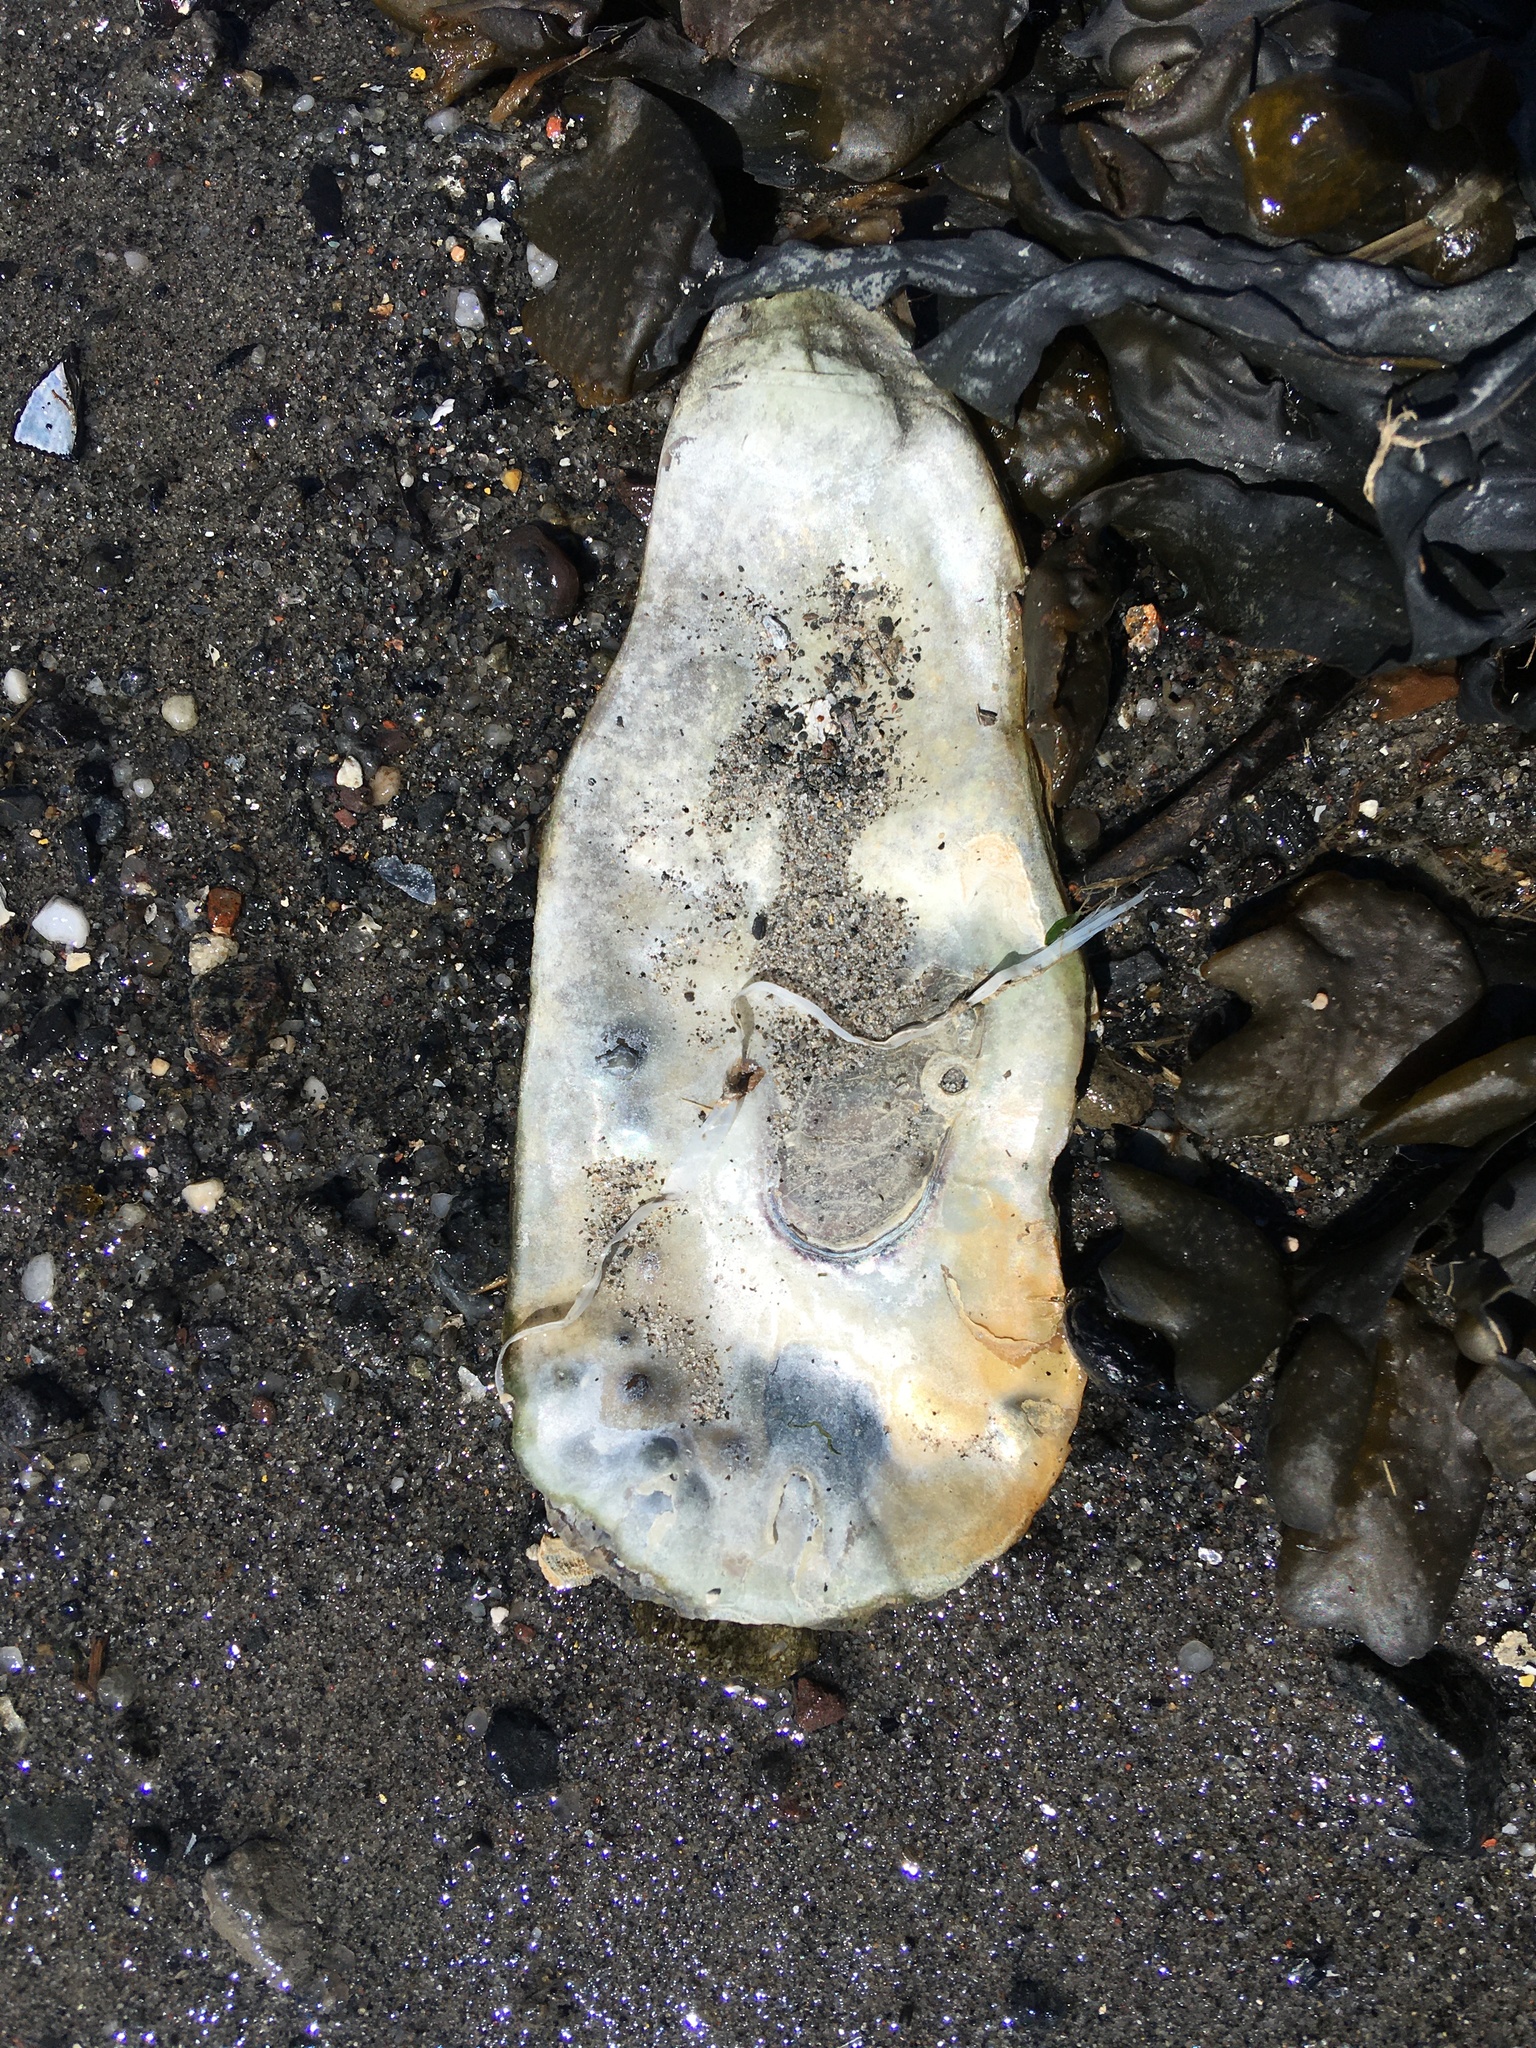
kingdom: Animalia
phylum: Mollusca
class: Bivalvia
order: Ostreida
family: Ostreidae
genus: Crassostrea
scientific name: Crassostrea virginica
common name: American oyster
